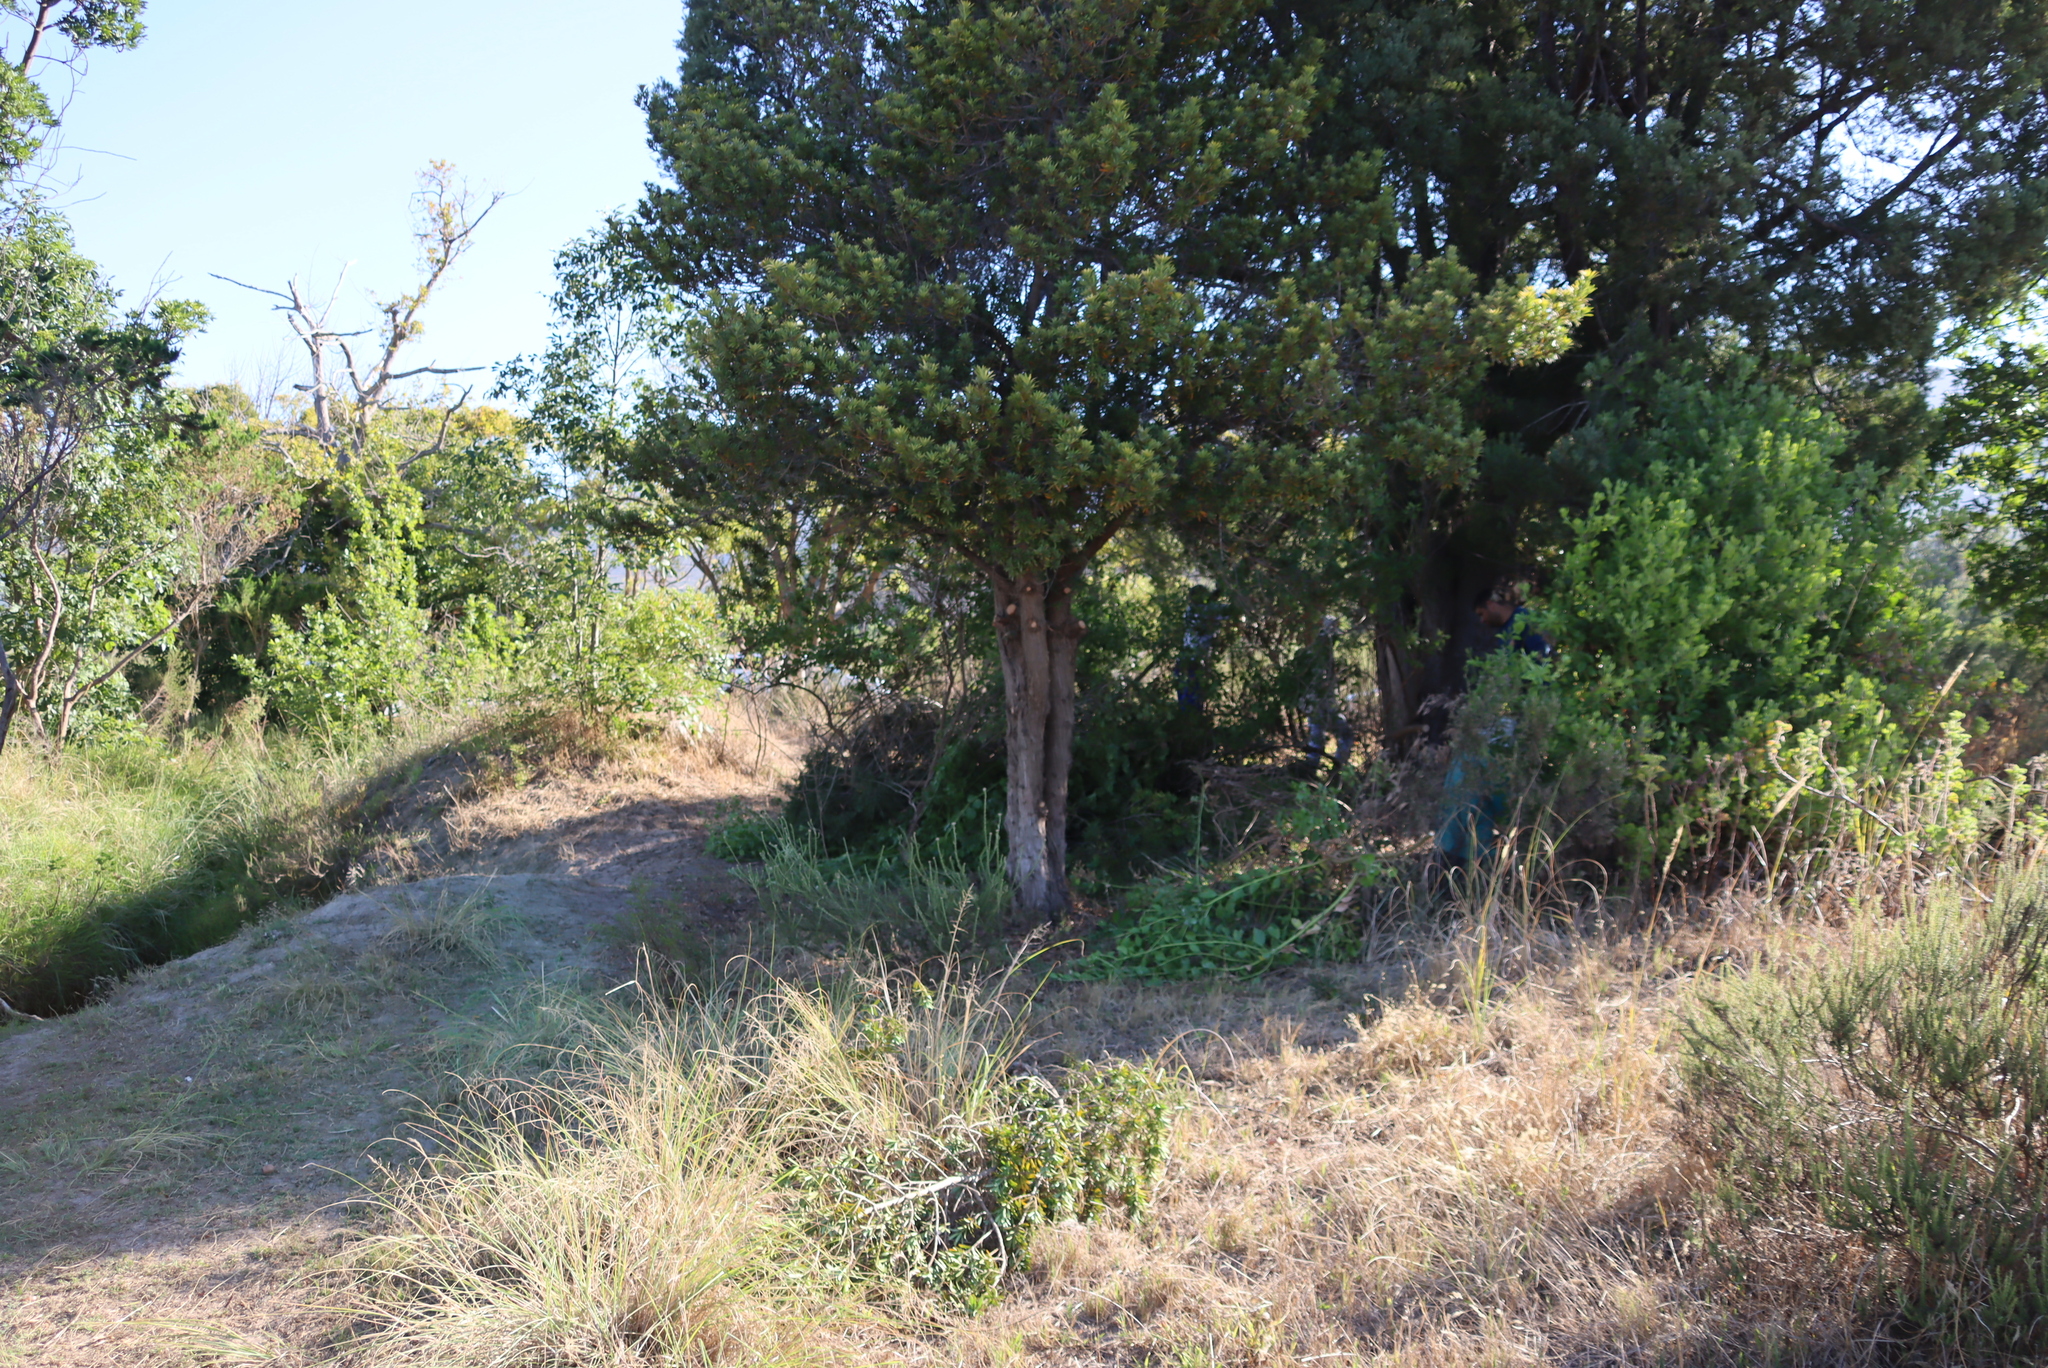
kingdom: Plantae
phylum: Tracheophyta
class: Pinopsida
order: Pinales
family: Podocarpaceae
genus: Afrocarpus
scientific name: Afrocarpus falcatus
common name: Bastard yellowwood
